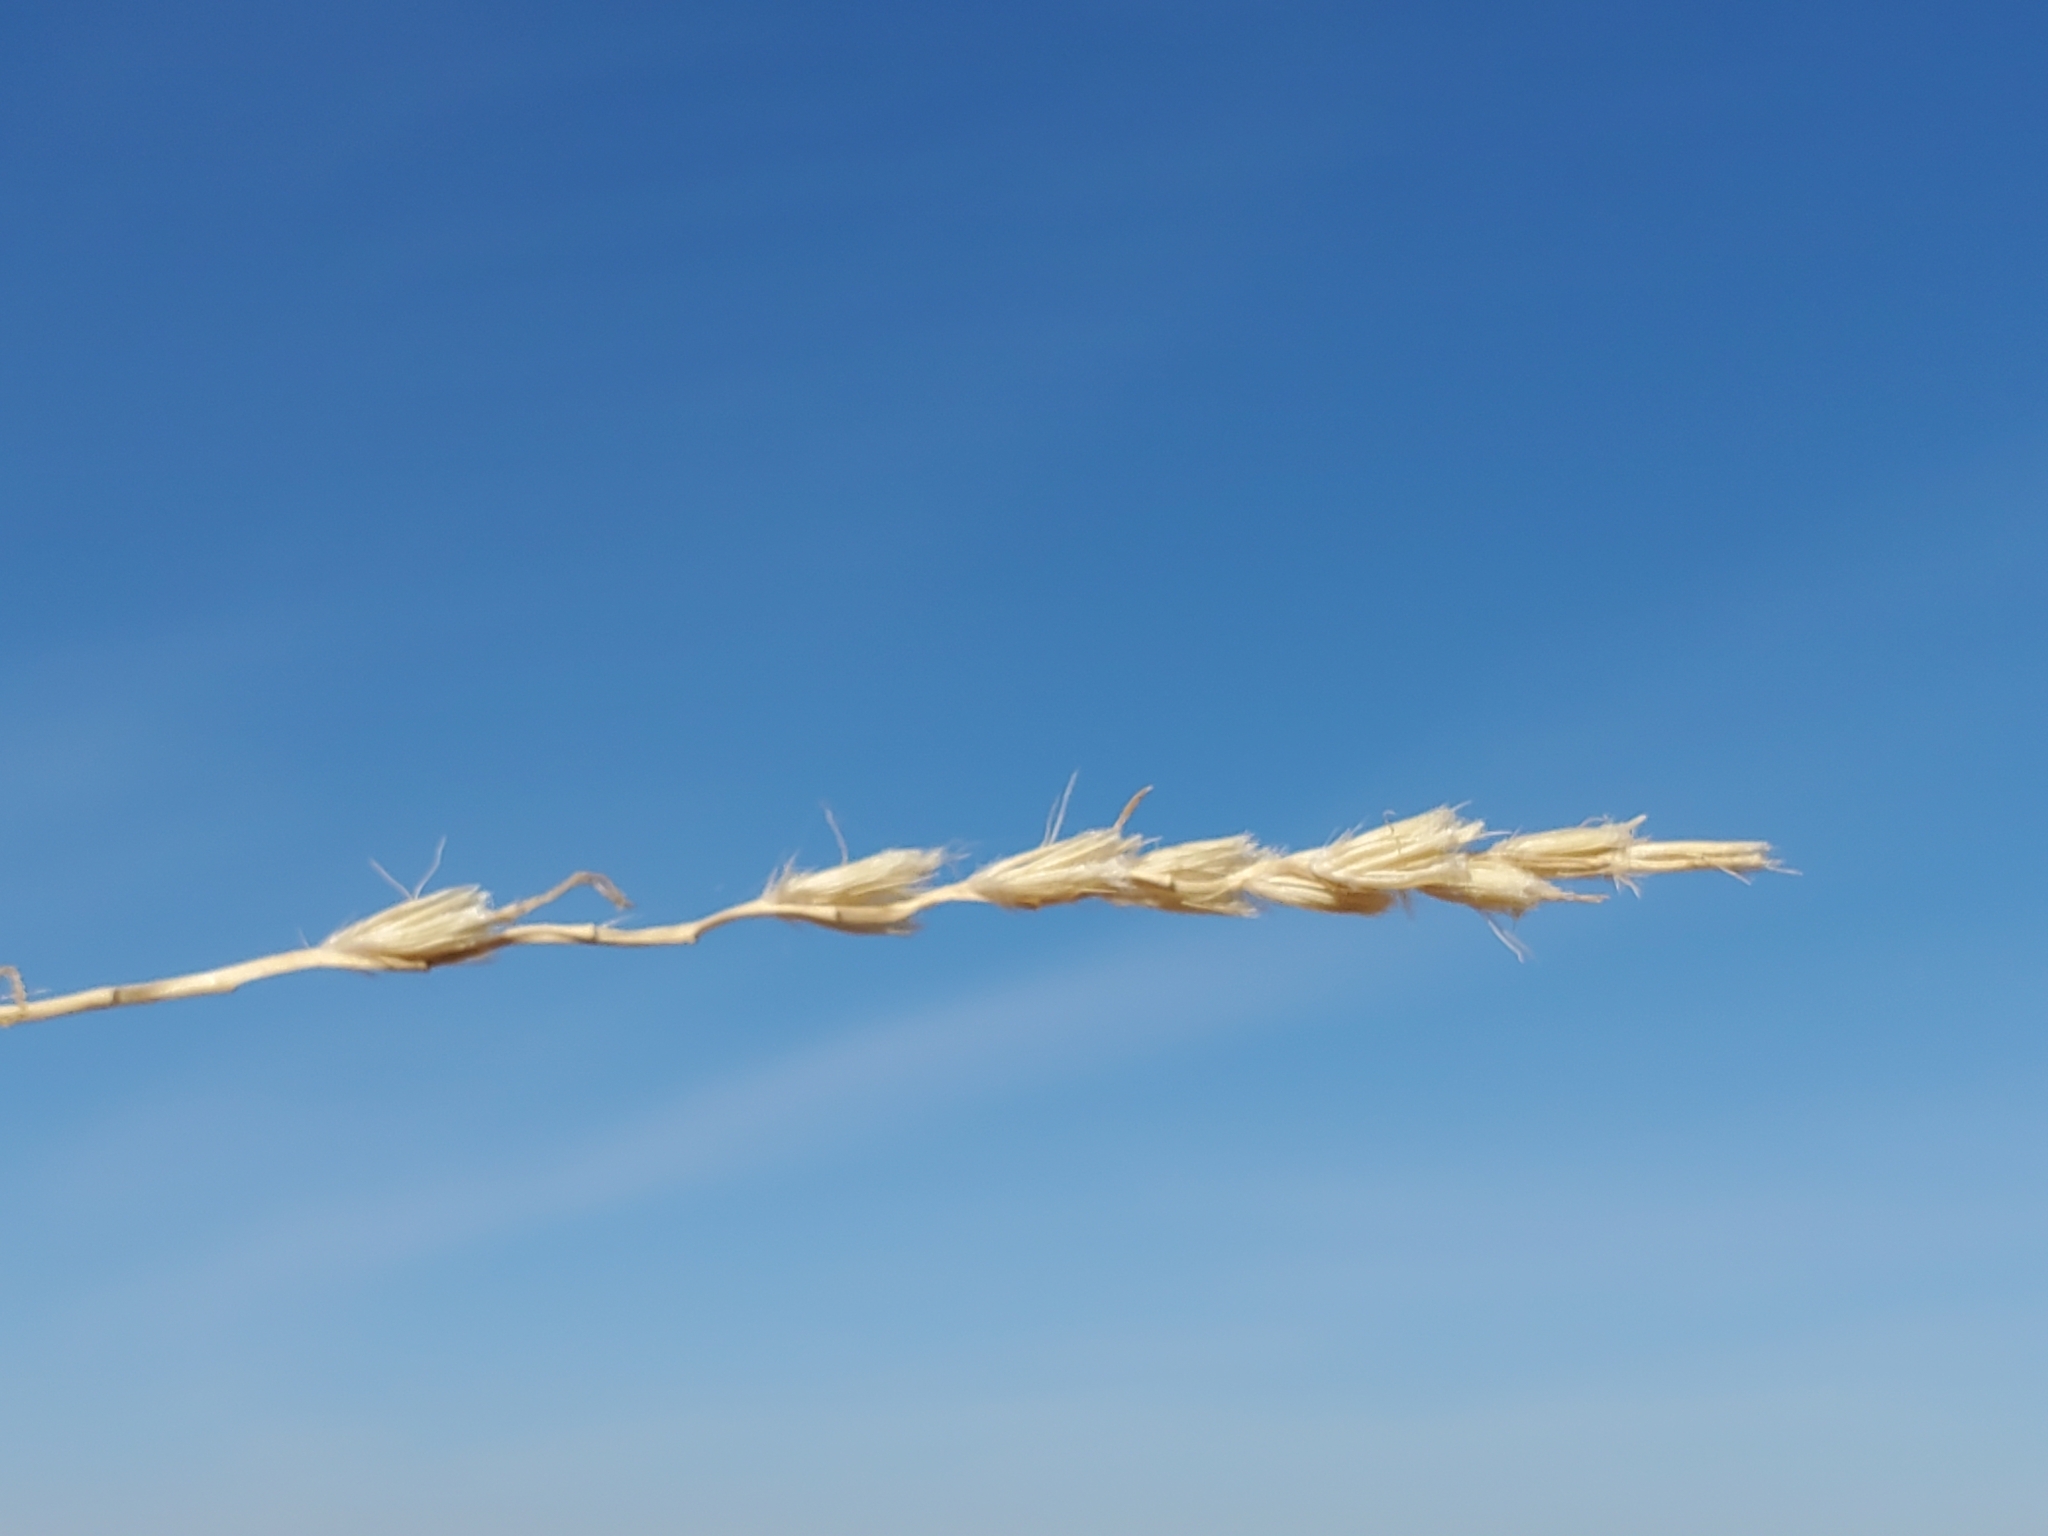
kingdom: Plantae
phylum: Tracheophyta
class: Liliopsida
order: Poales
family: Poaceae
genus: Hilaria
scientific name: Hilaria rigida
